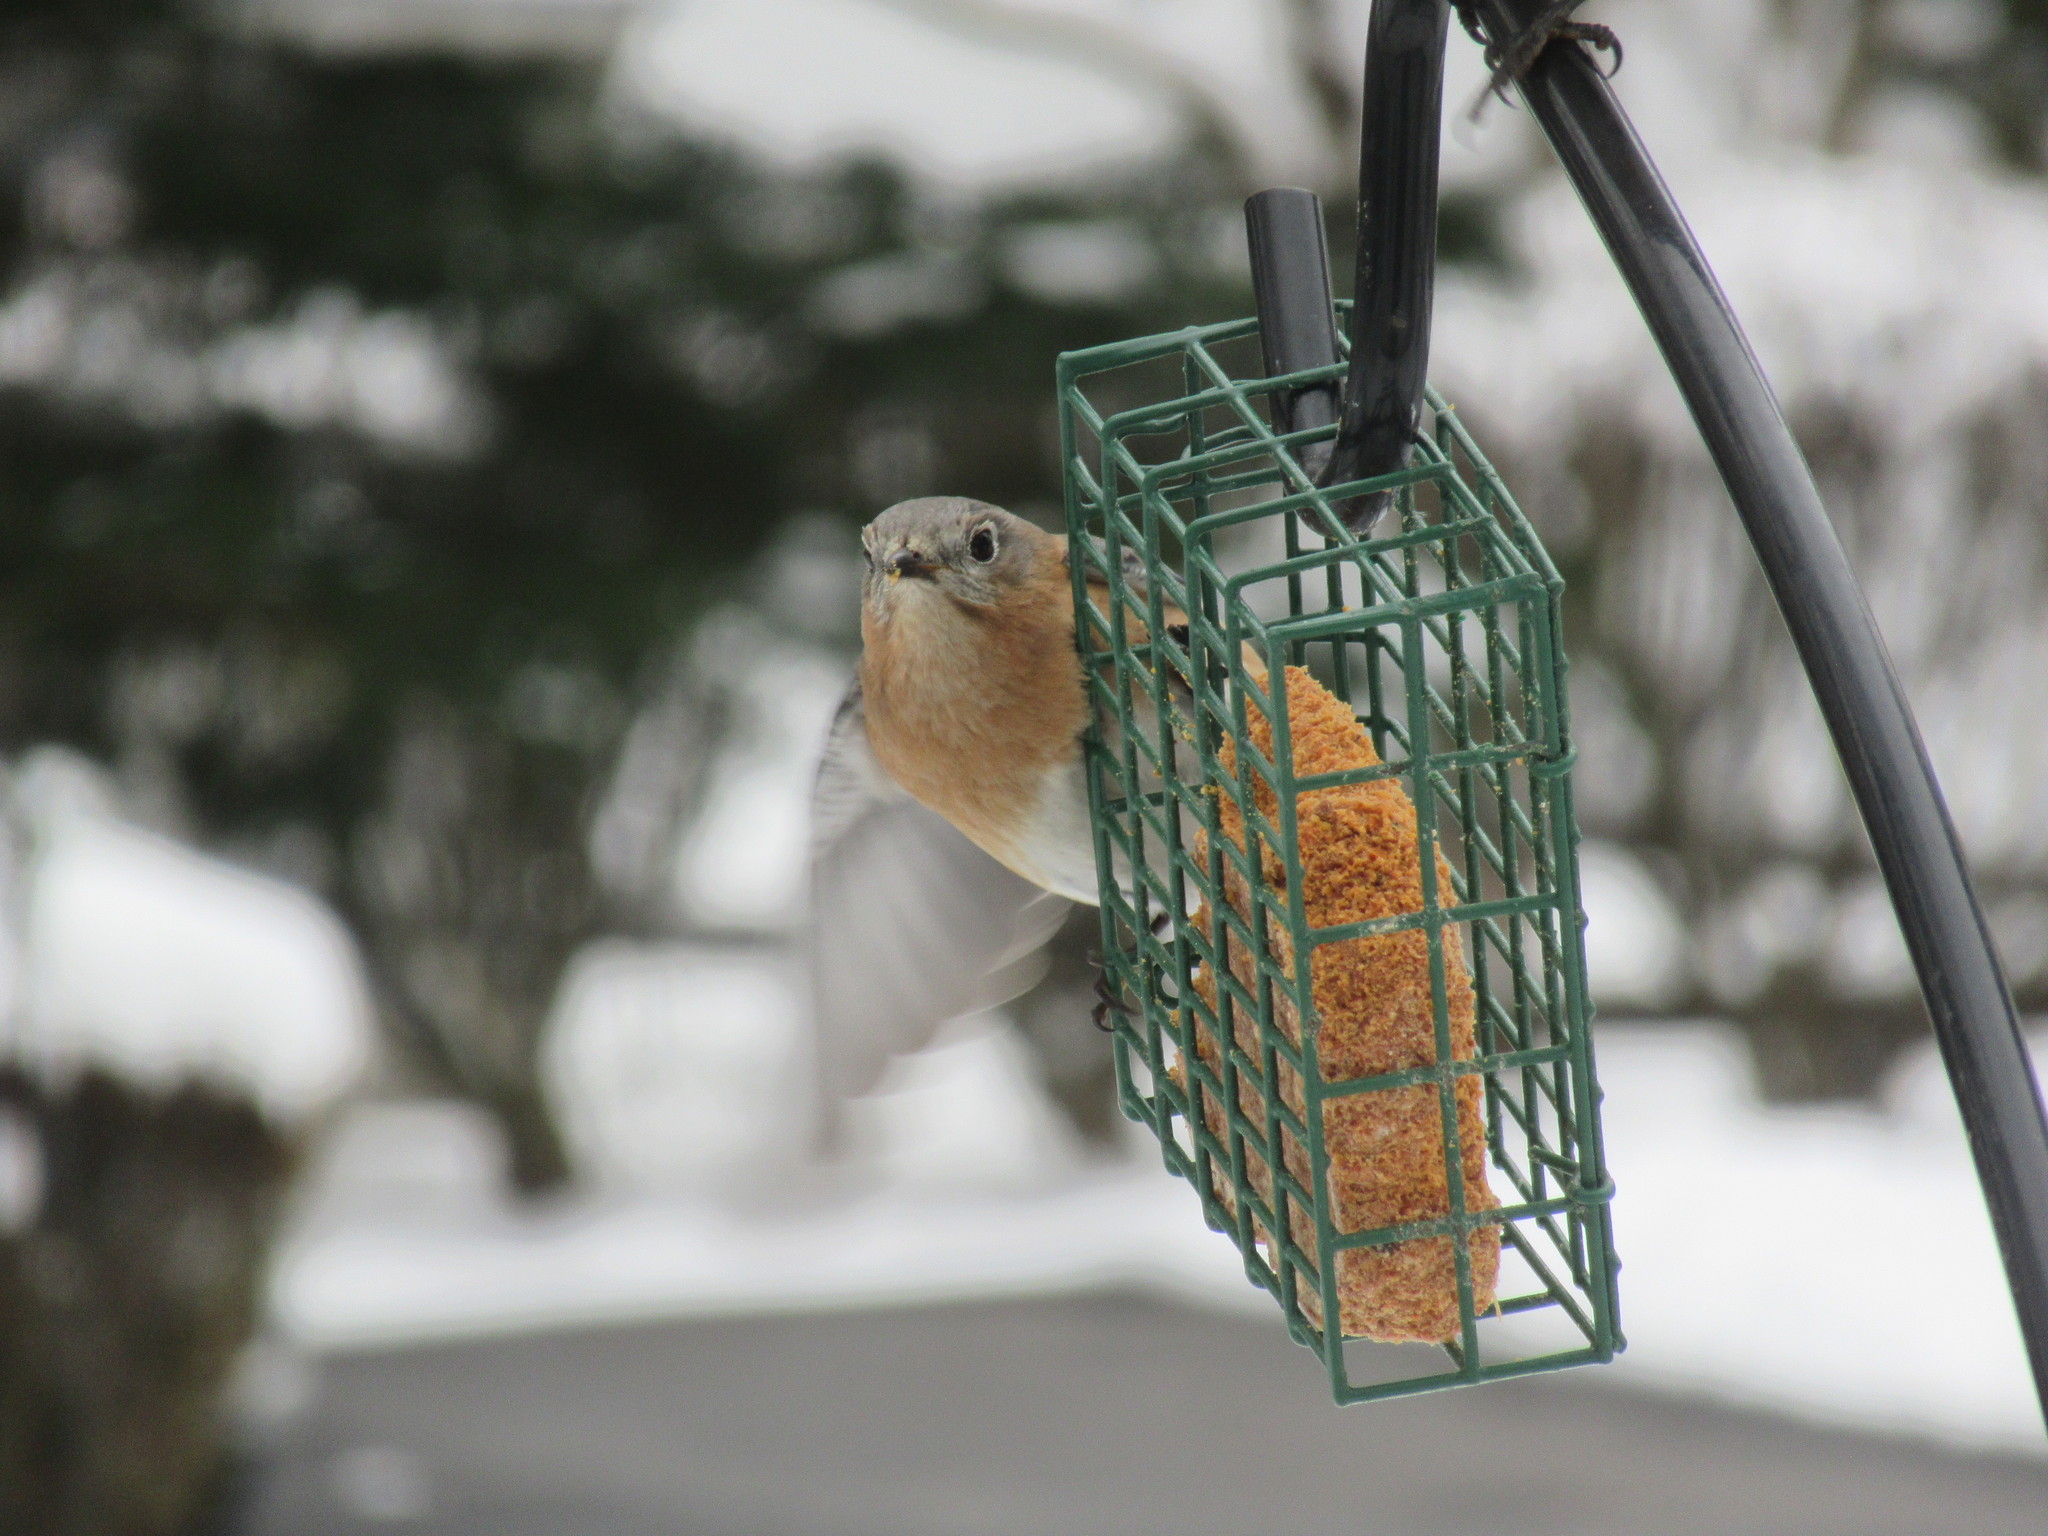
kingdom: Animalia
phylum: Chordata
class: Aves
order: Passeriformes
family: Turdidae
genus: Sialia
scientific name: Sialia sialis
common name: Eastern bluebird
